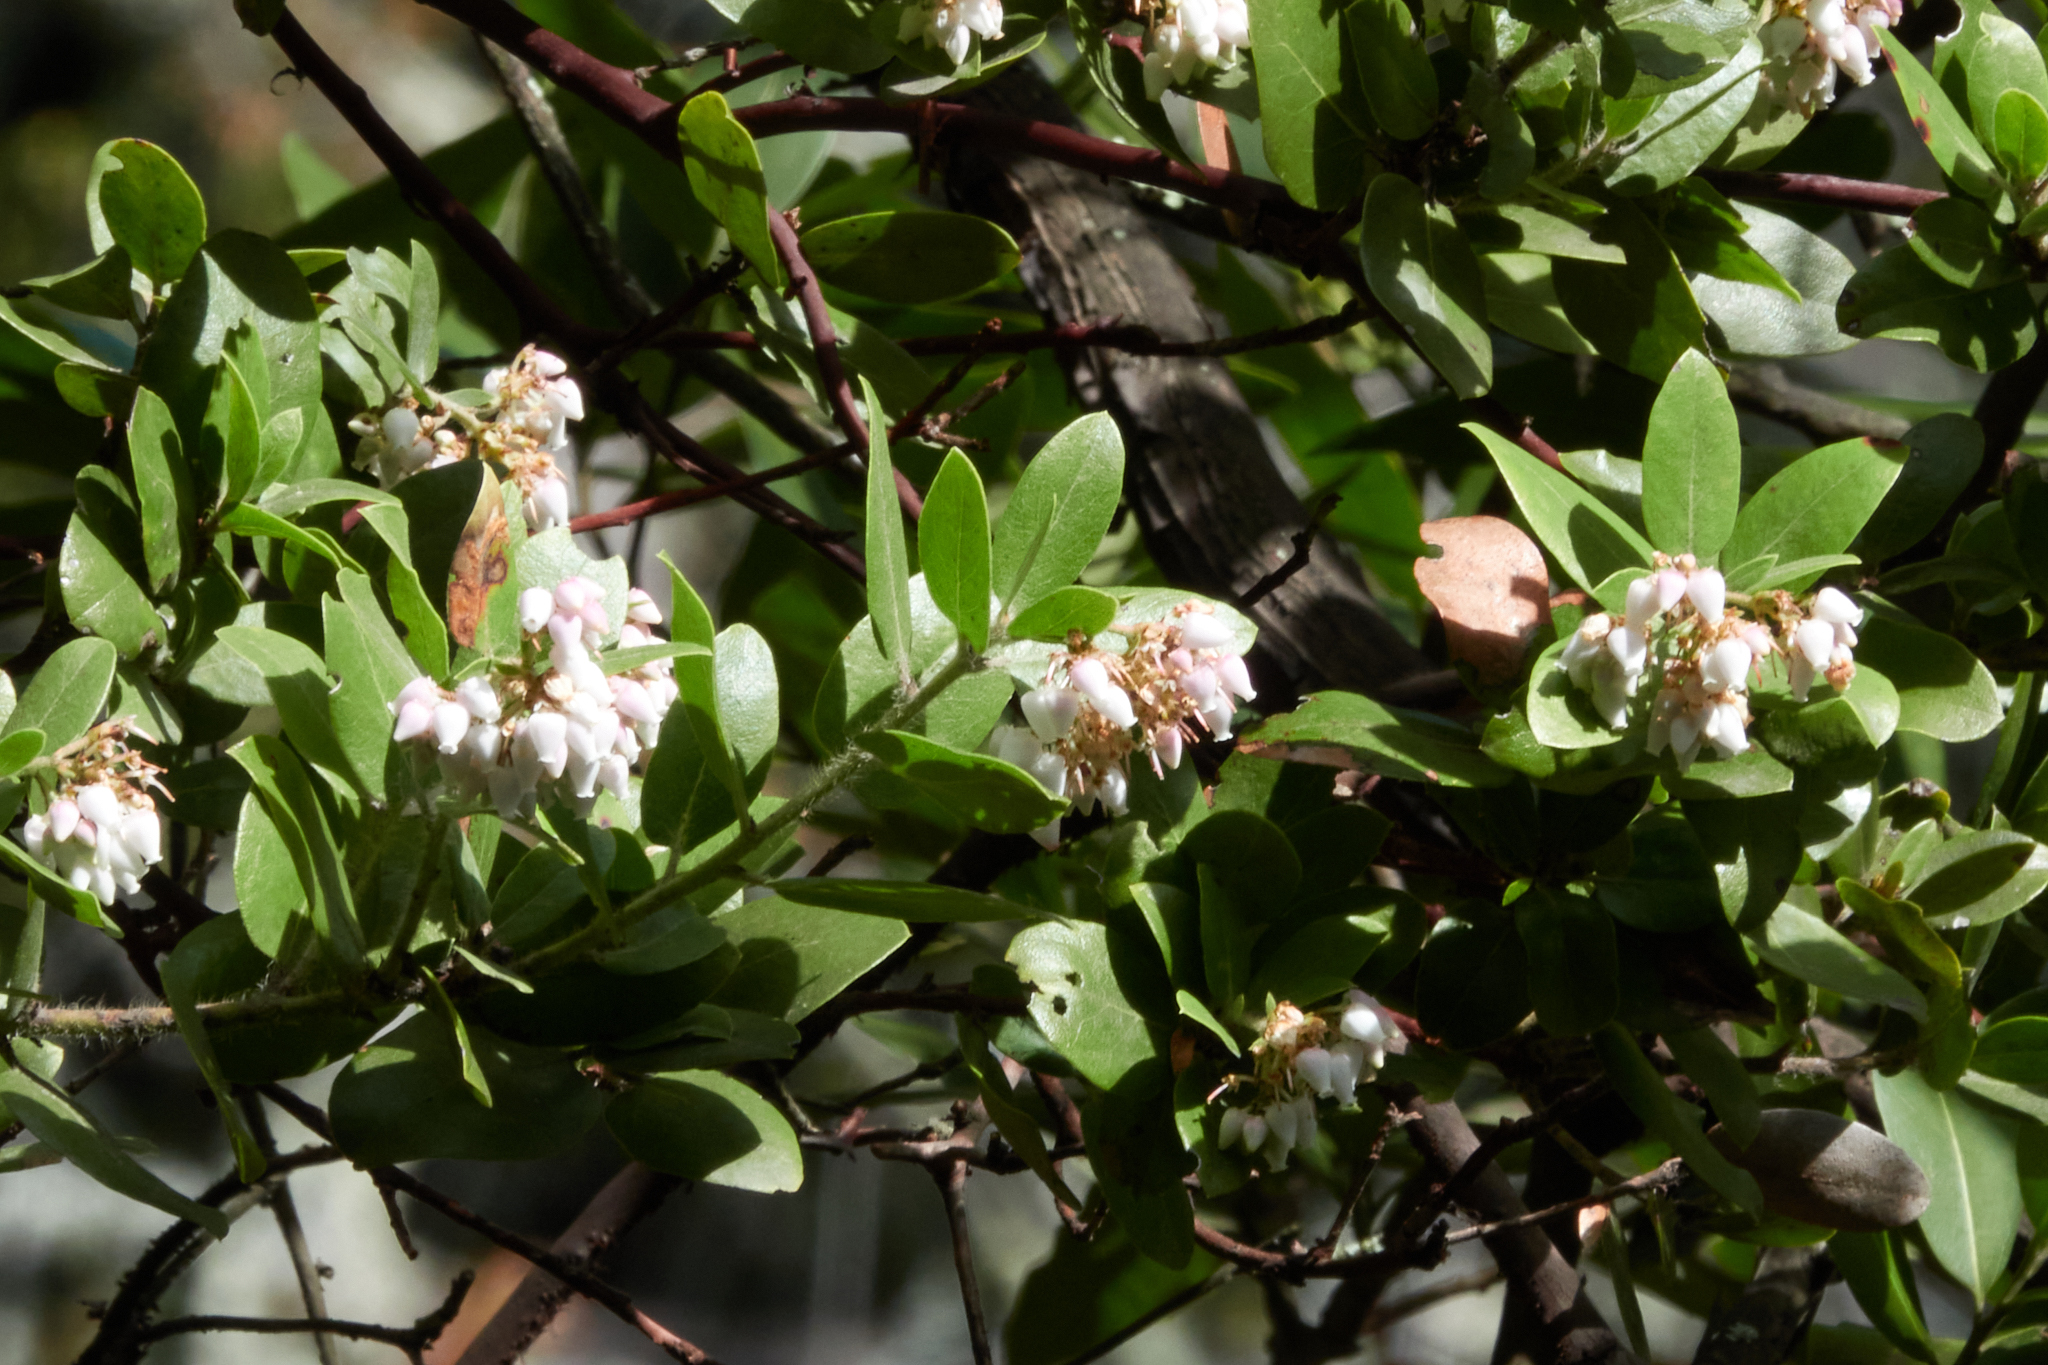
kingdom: Plantae
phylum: Tracheophyta
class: Magnoliopsida
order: Ericales
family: Ericaceae
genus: Arctostaphylos
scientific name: Arctostaphylos crustacea
